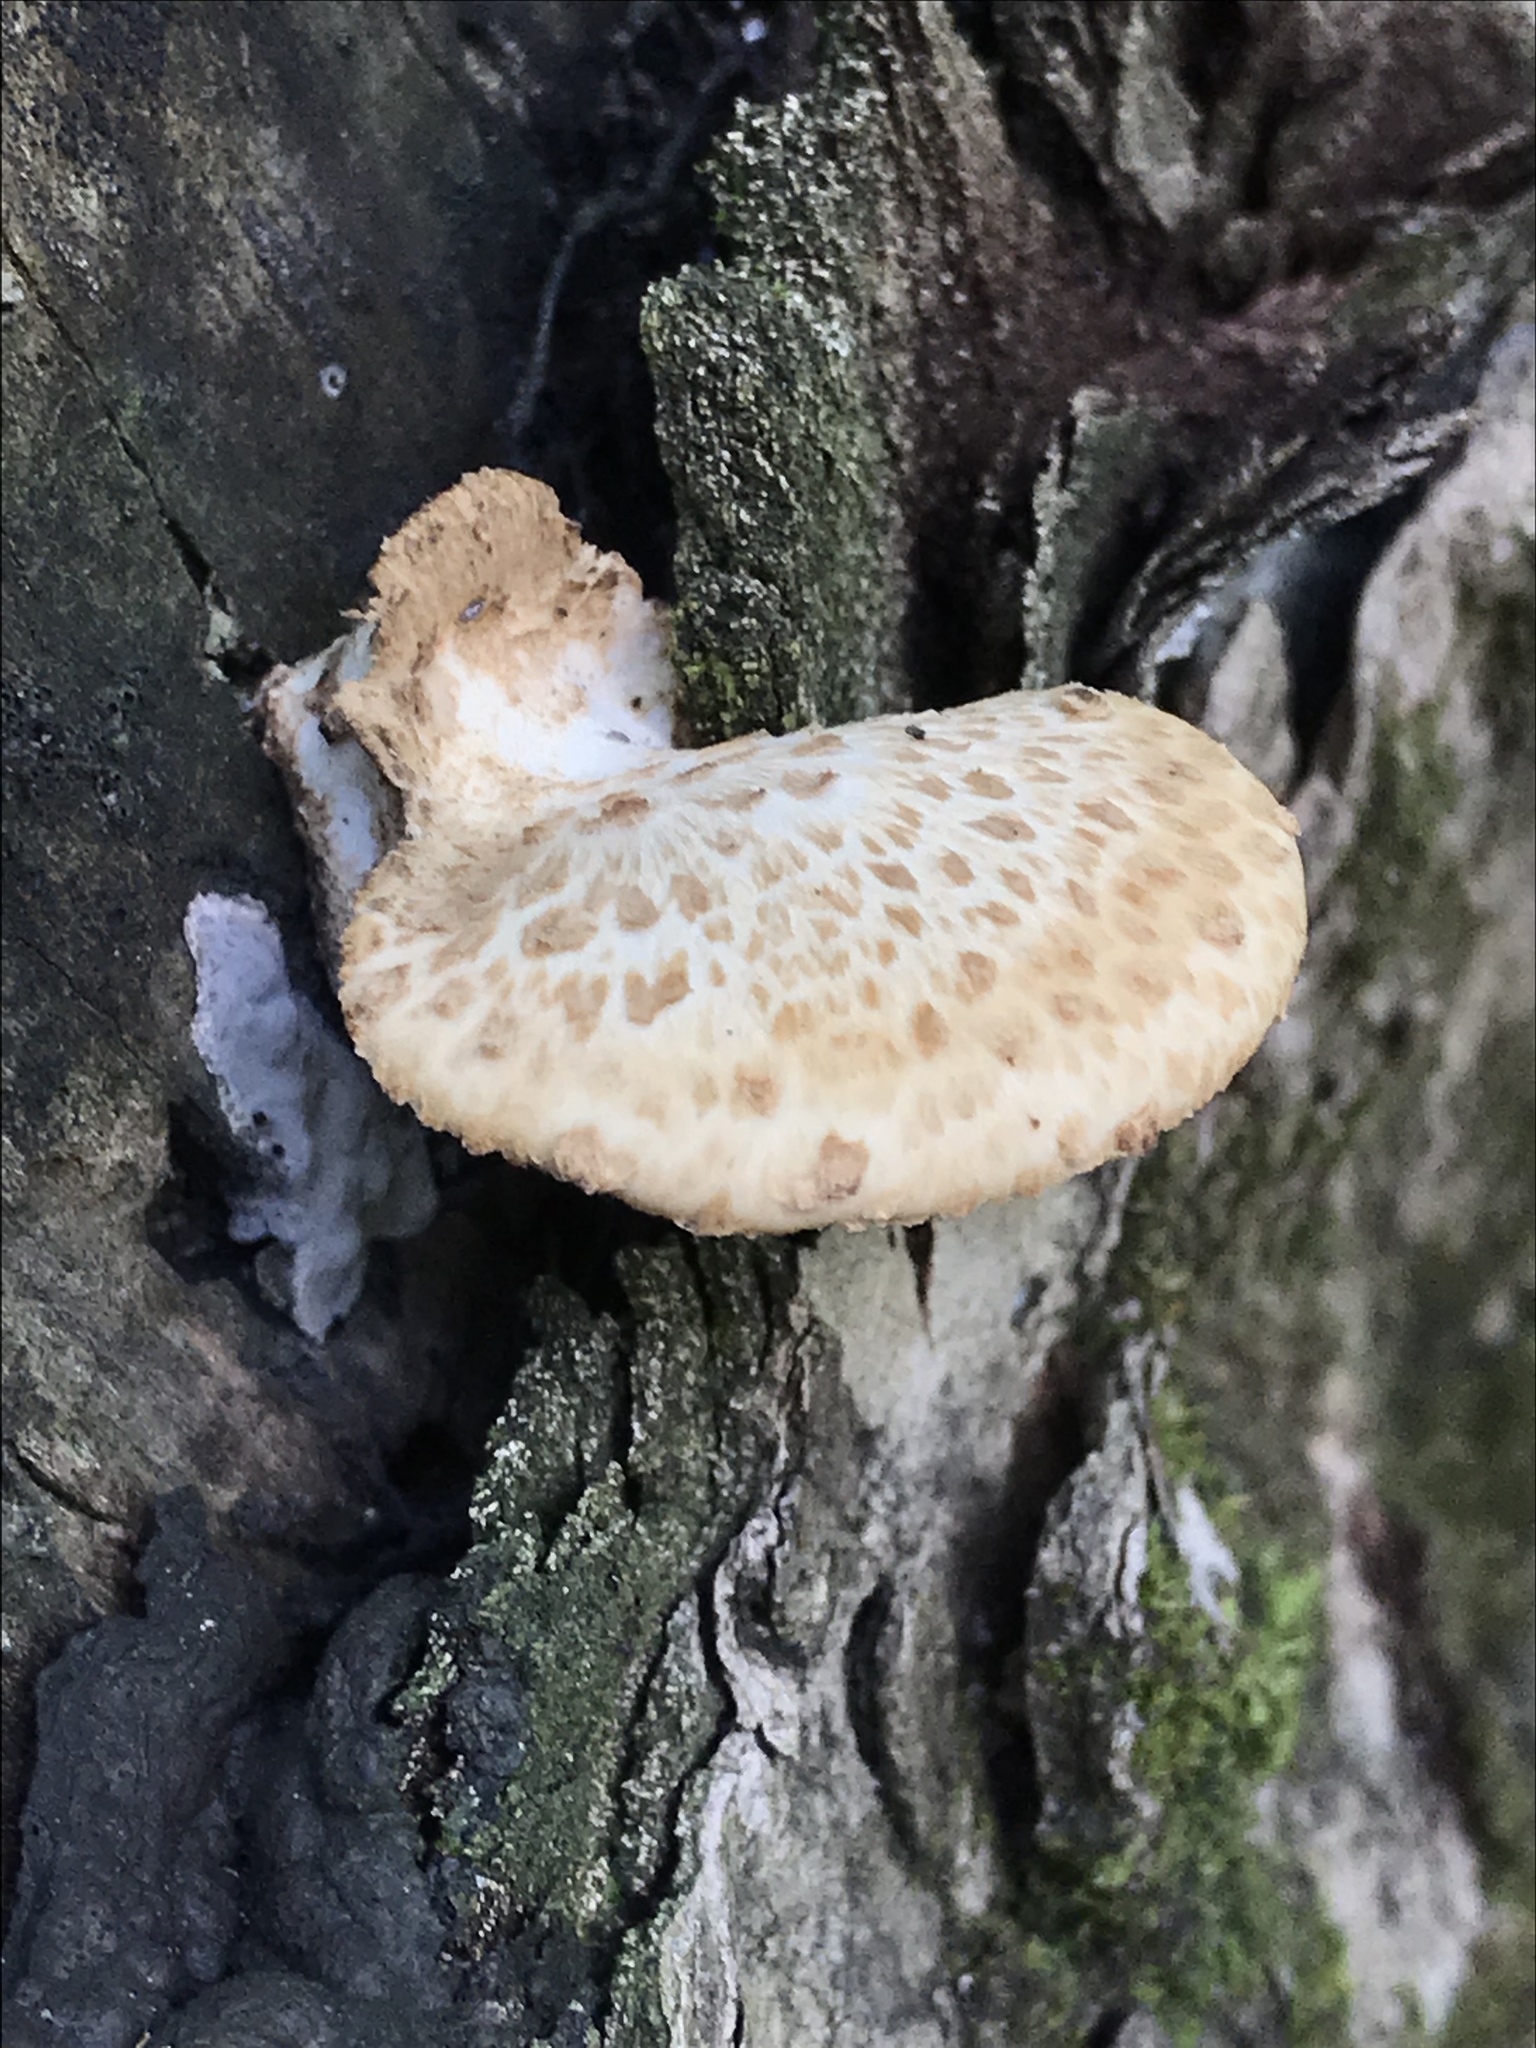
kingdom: Fungi
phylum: Basidiomycota
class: Agaricomycetes
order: Polyporales
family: Polyporaceae
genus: Cerioporus
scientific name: Cerioporus squamosus
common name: Dryad's saddle
